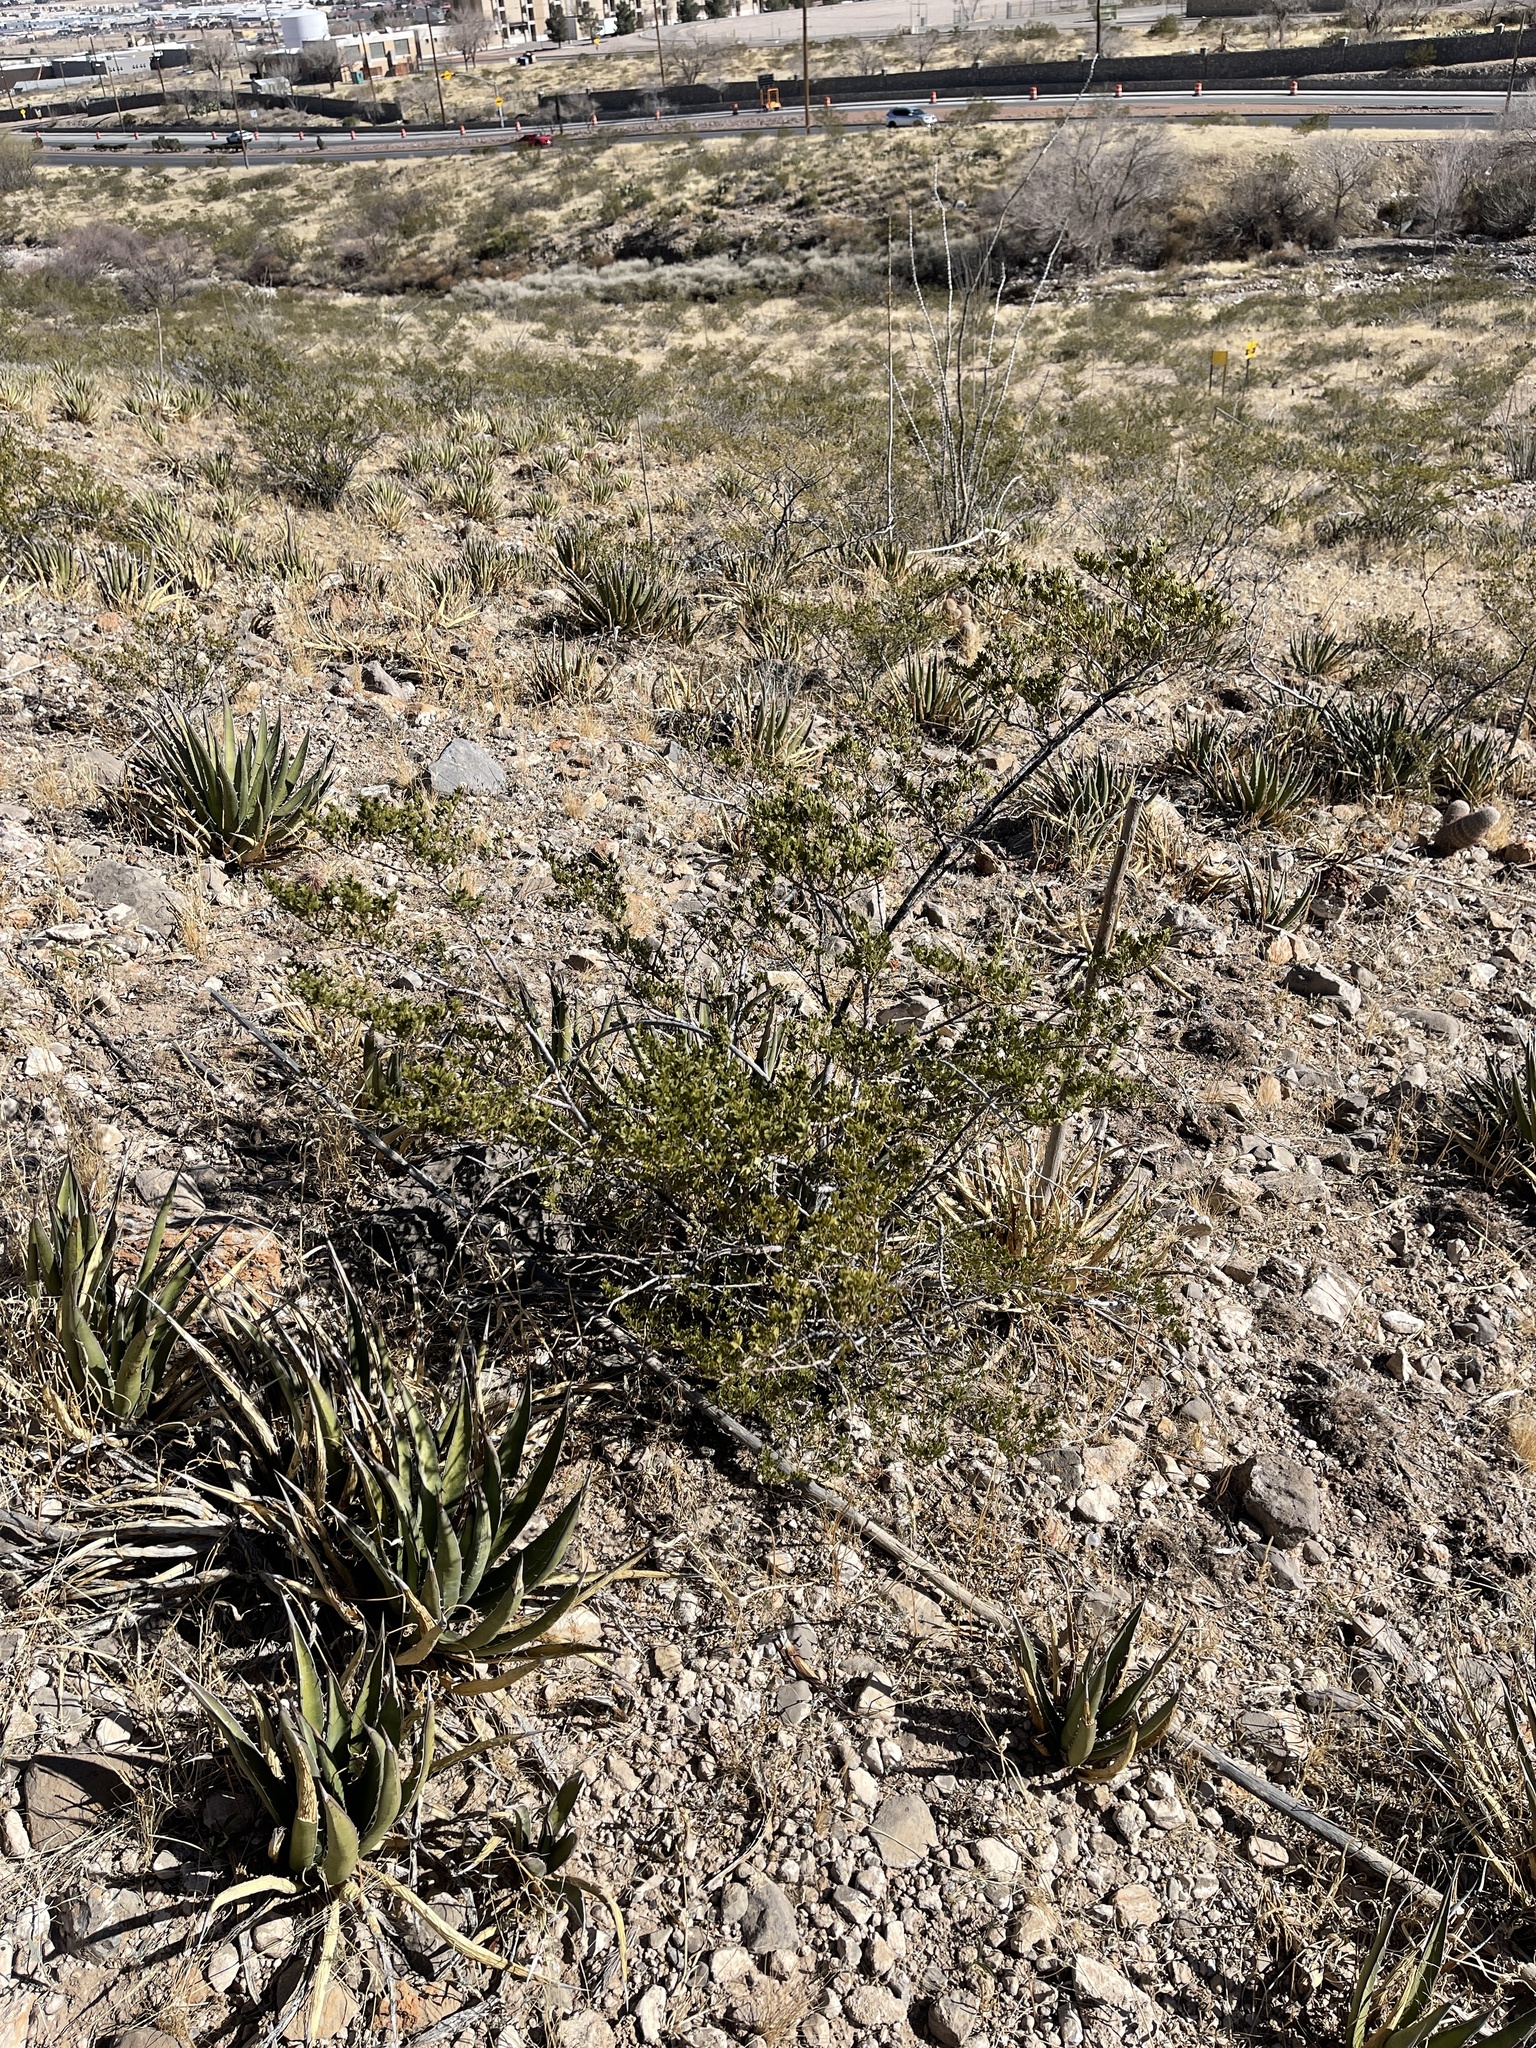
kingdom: Plantae
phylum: Tracheophyta
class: Magnoliopsida
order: Zygophyllales
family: Zygophyllaceae
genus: Larrea
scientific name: Larrea tridentata
